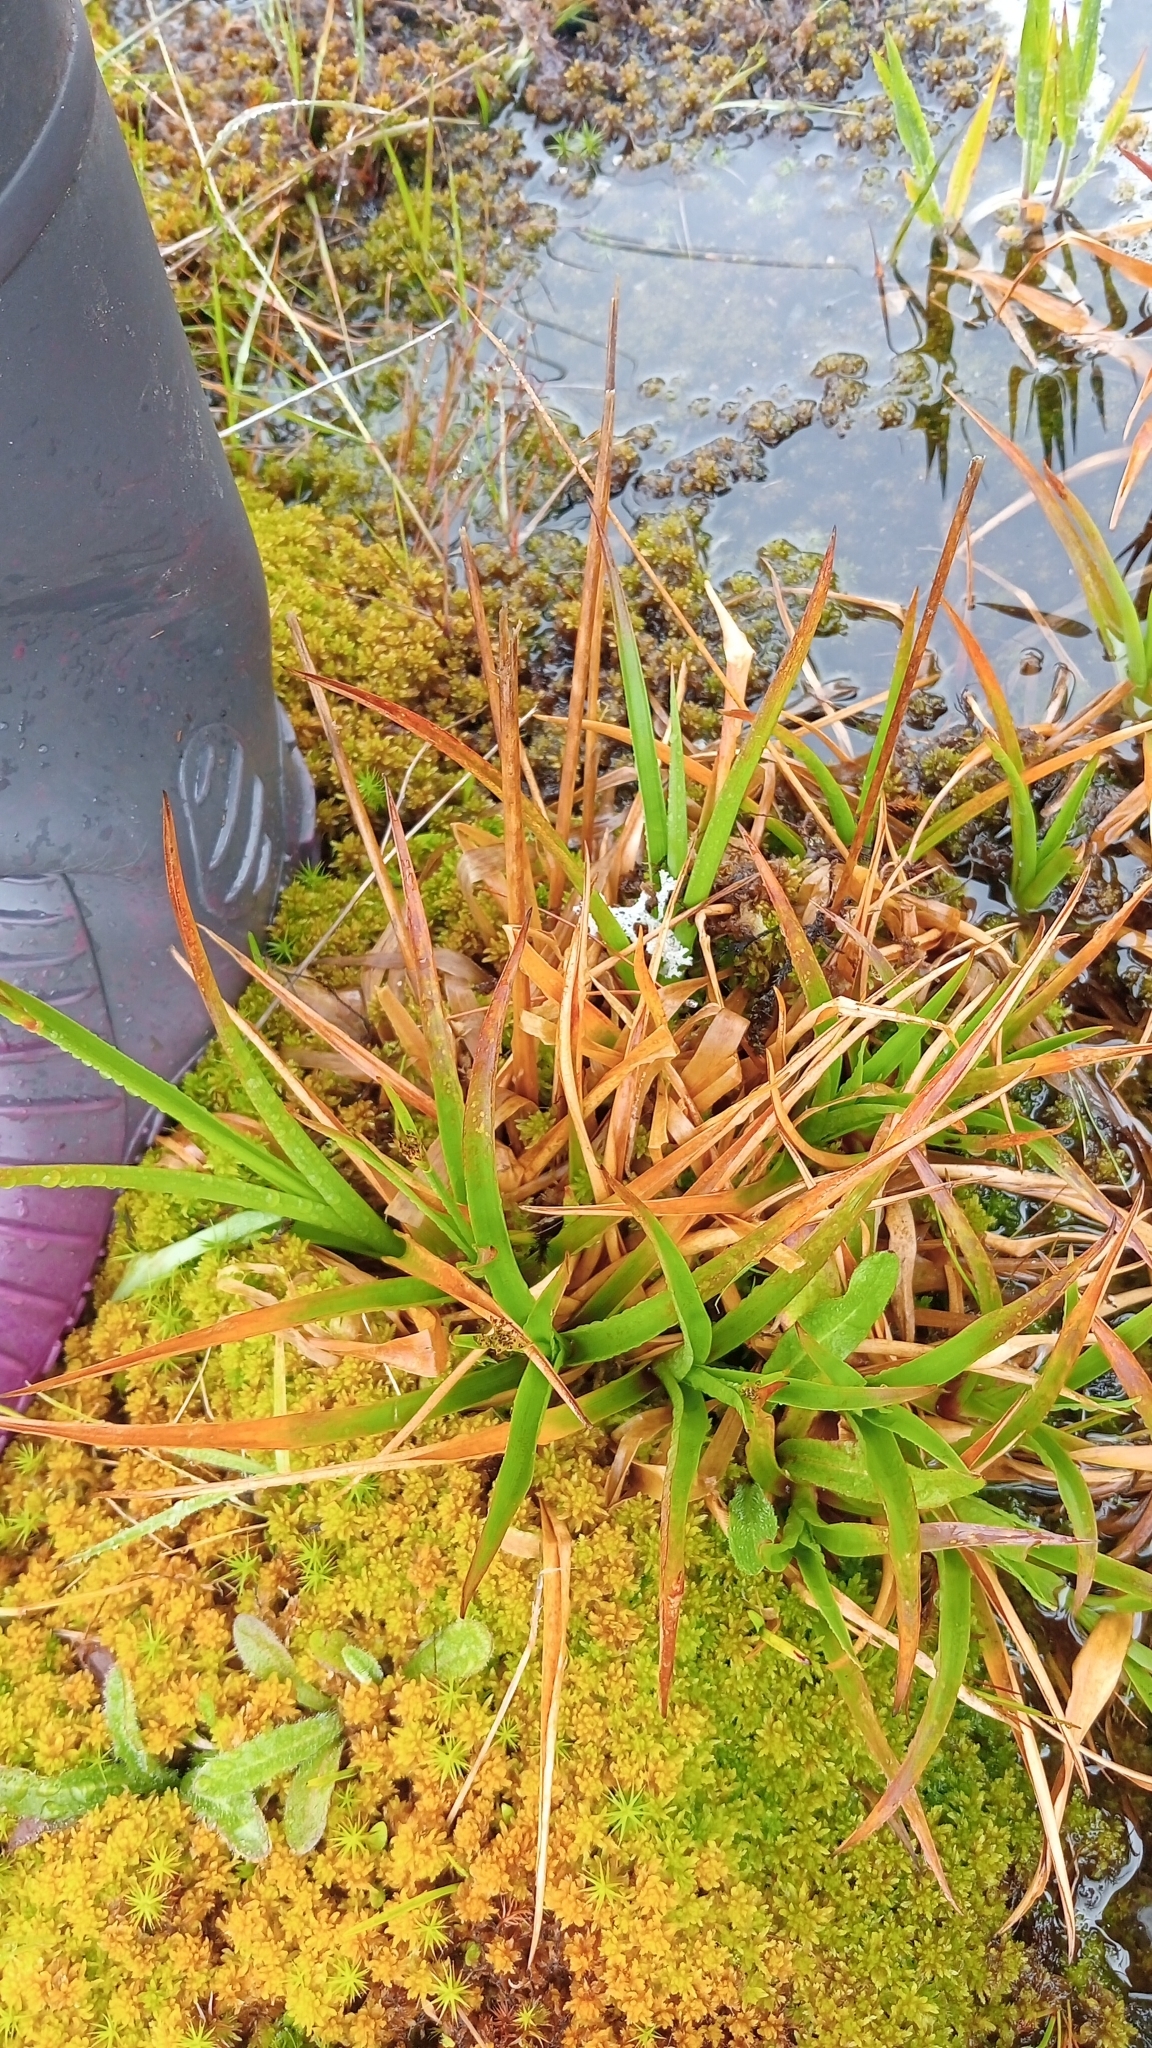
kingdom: Plantae
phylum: Tracheophyta
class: Liliopsida
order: Poales
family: Juncaceae
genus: Juncus
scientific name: Juncus planifolius
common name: Broadleaf rush
